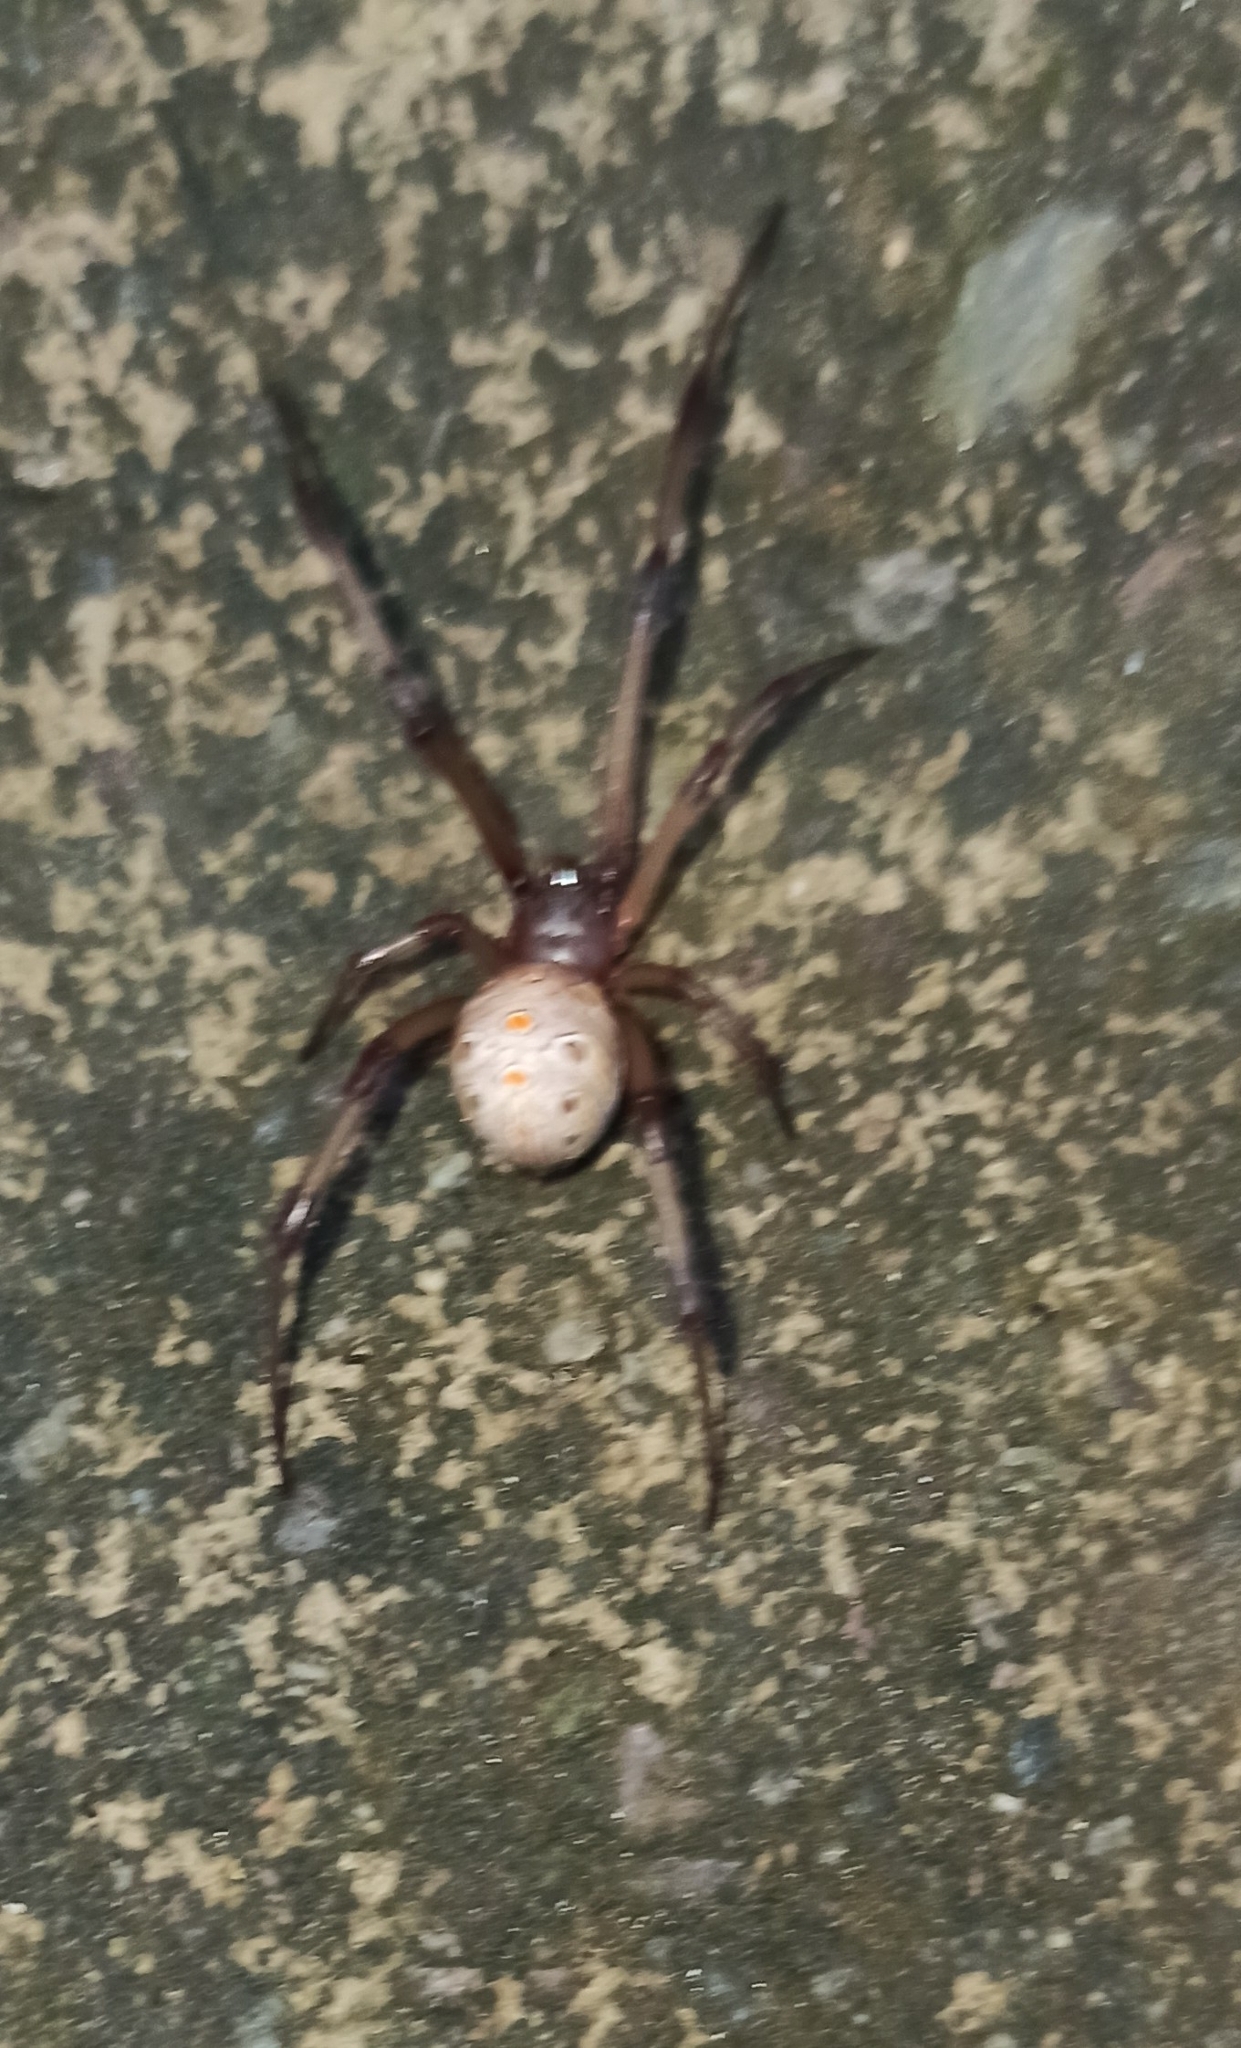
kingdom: Animalia
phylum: Arthropoda
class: Arachnida
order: Araneae
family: Theridiidae
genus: Latrodectus
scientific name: Latrodectus geometricus
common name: Brown widow spider
